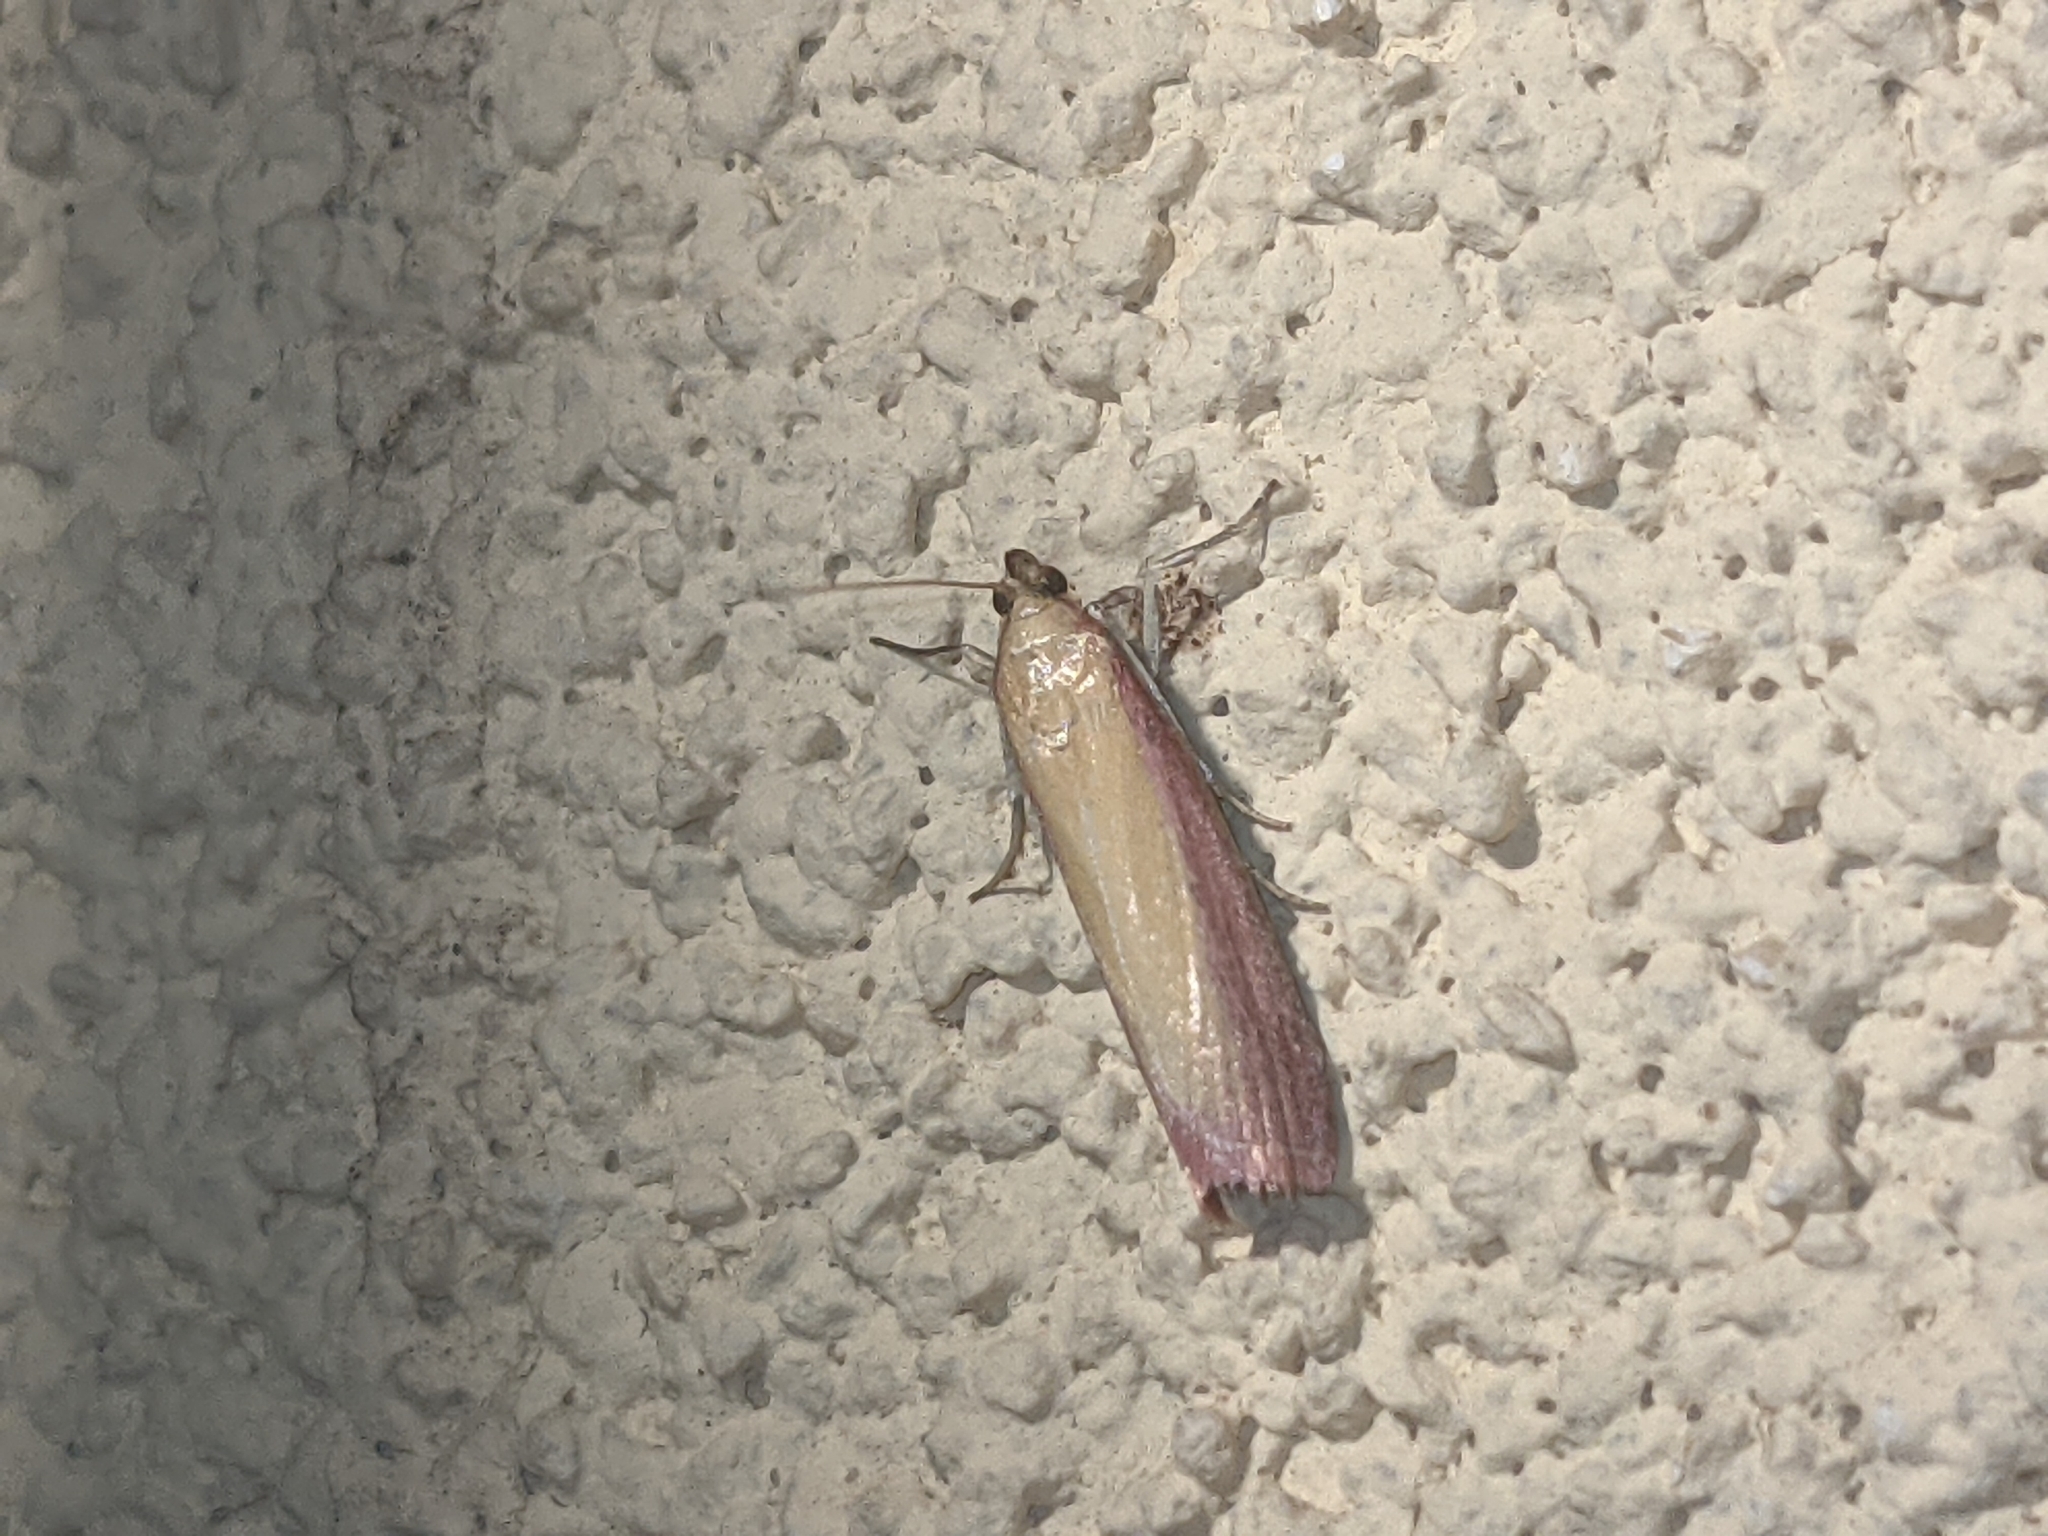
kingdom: Animalia
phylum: Arthropoda
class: Insecta
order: Lepidoptera
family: Pyralidae
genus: Oncocera
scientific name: Oncocera semirubella
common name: Rosy-striped knot-horn
